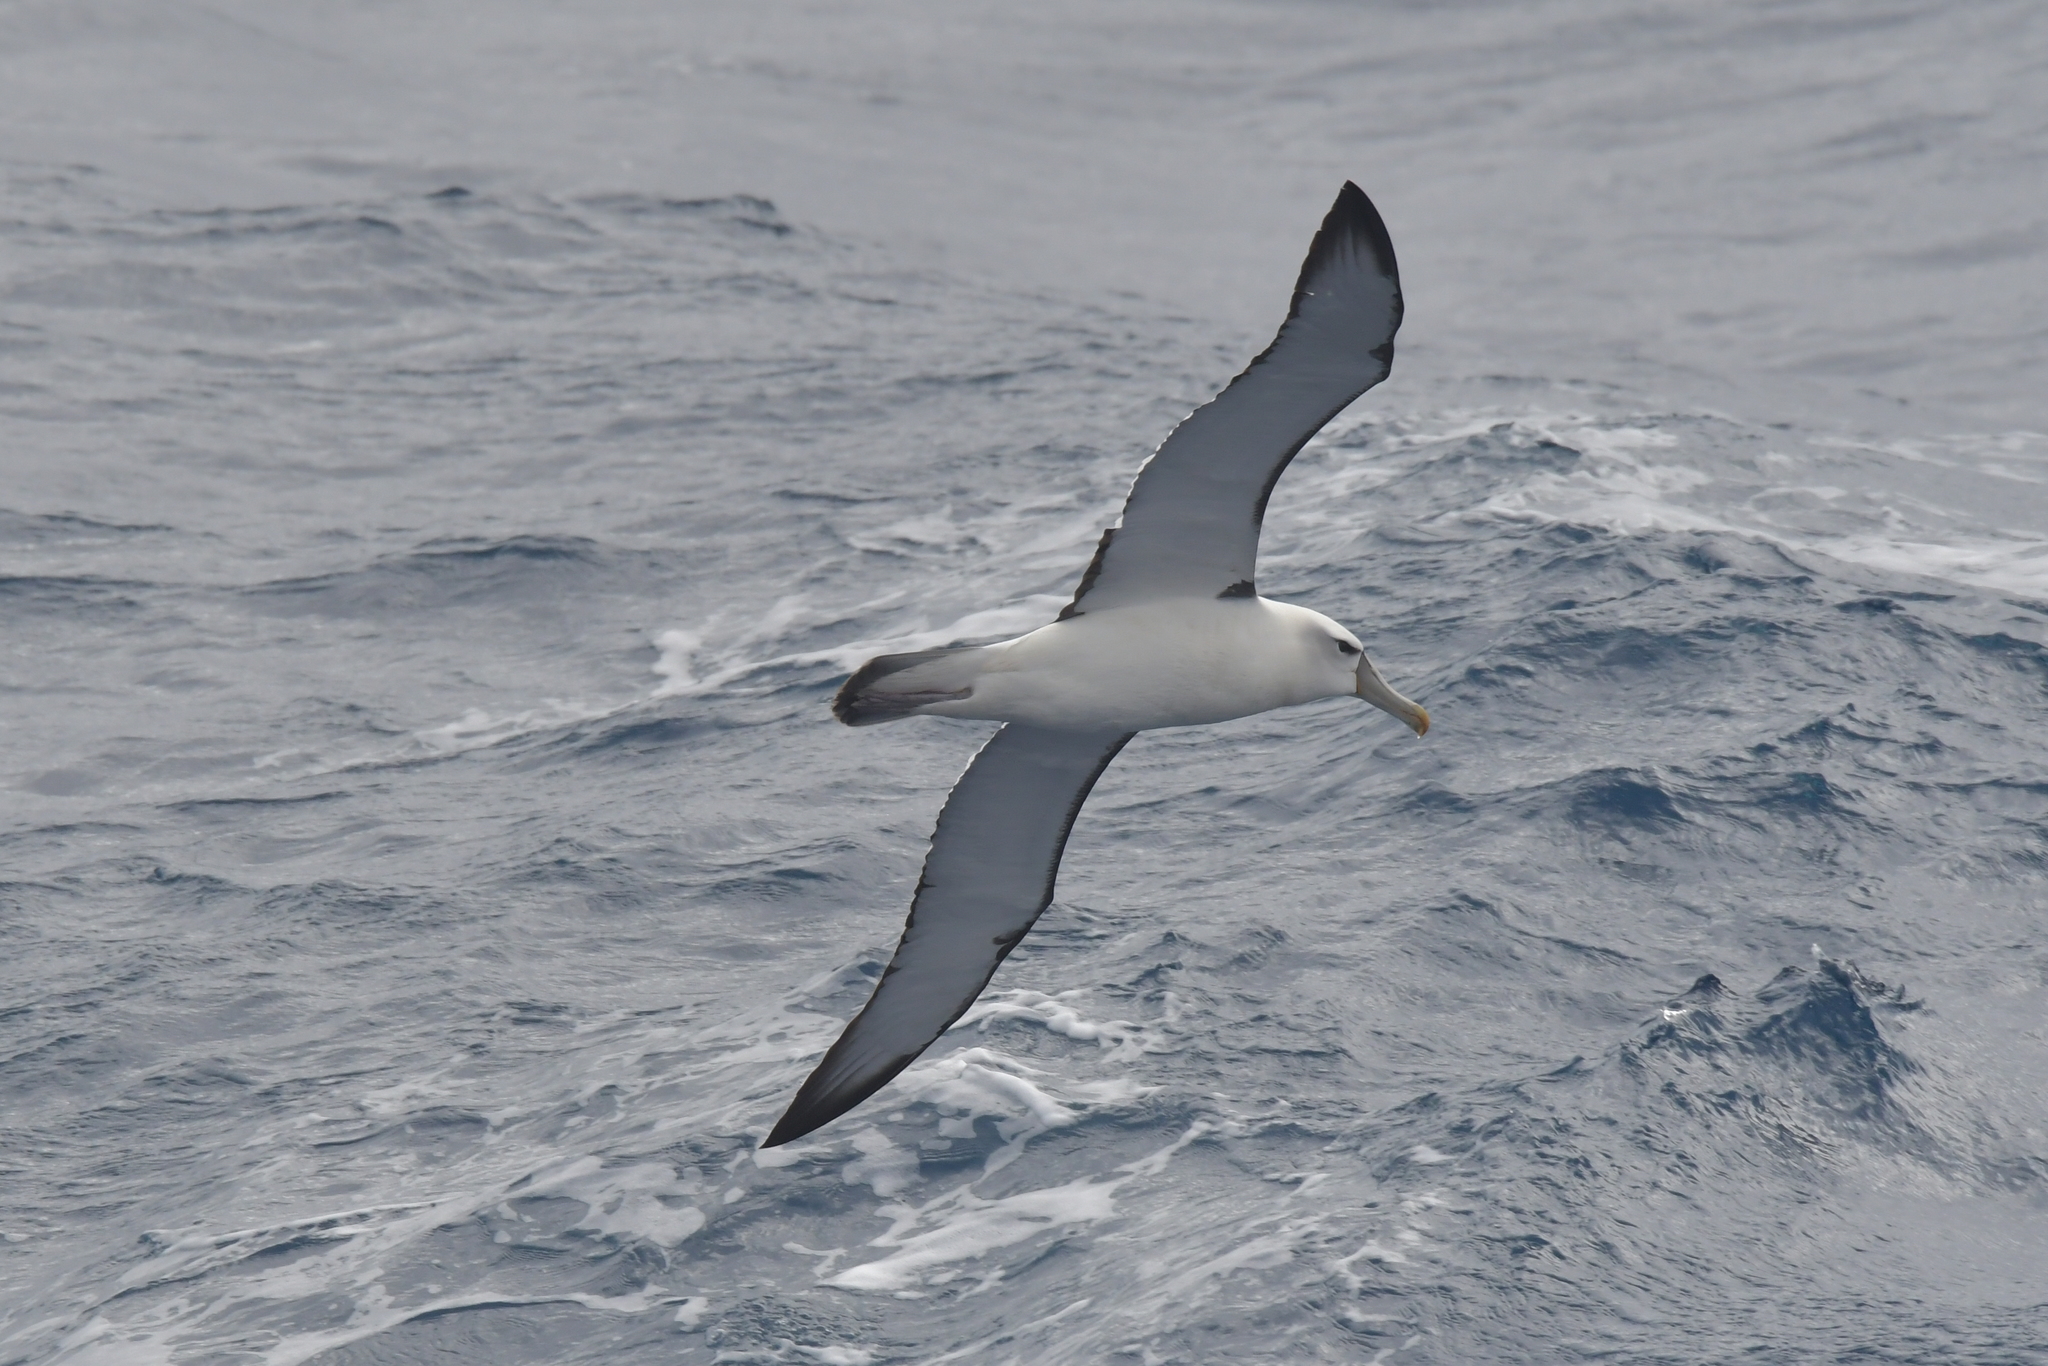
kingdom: Animalia
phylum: Chordata
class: Aves
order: Procellariiformes
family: Diomedeidae
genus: Thalassarche
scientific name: Thalassarche cauta
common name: Shy albatross
